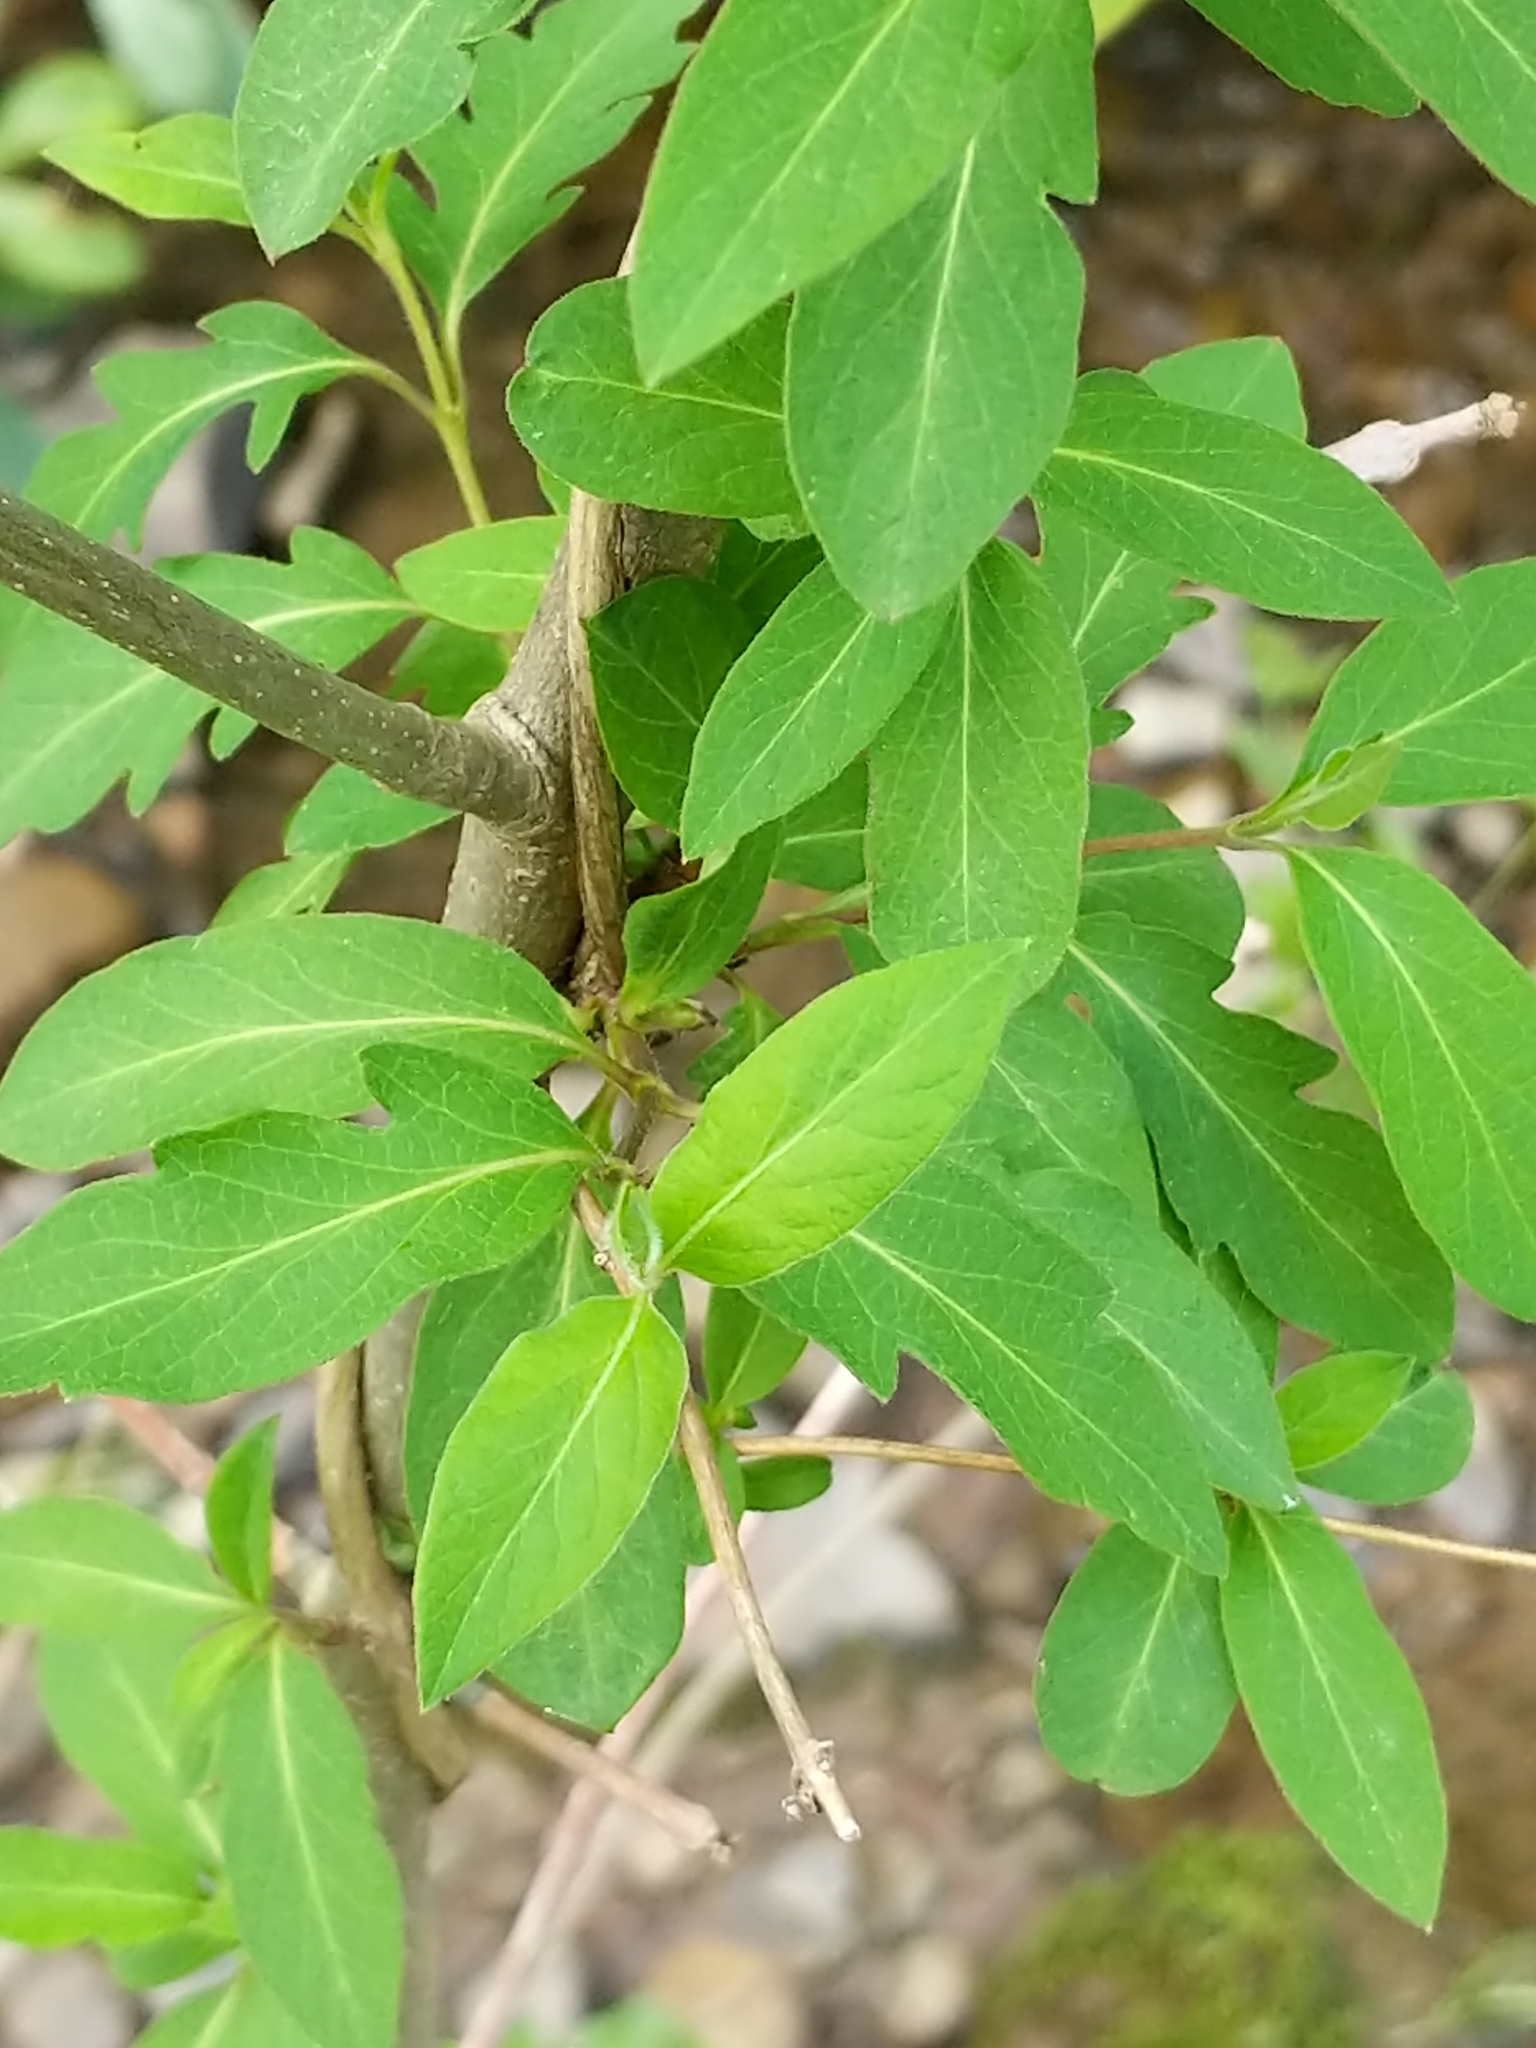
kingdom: Plantae
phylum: Tracheophyta
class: Magnoliopsida
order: Dipsacales
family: Caprifoliaceae
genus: Lonicera
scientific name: Lonicera japonica
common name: Japanese honeysuckle
